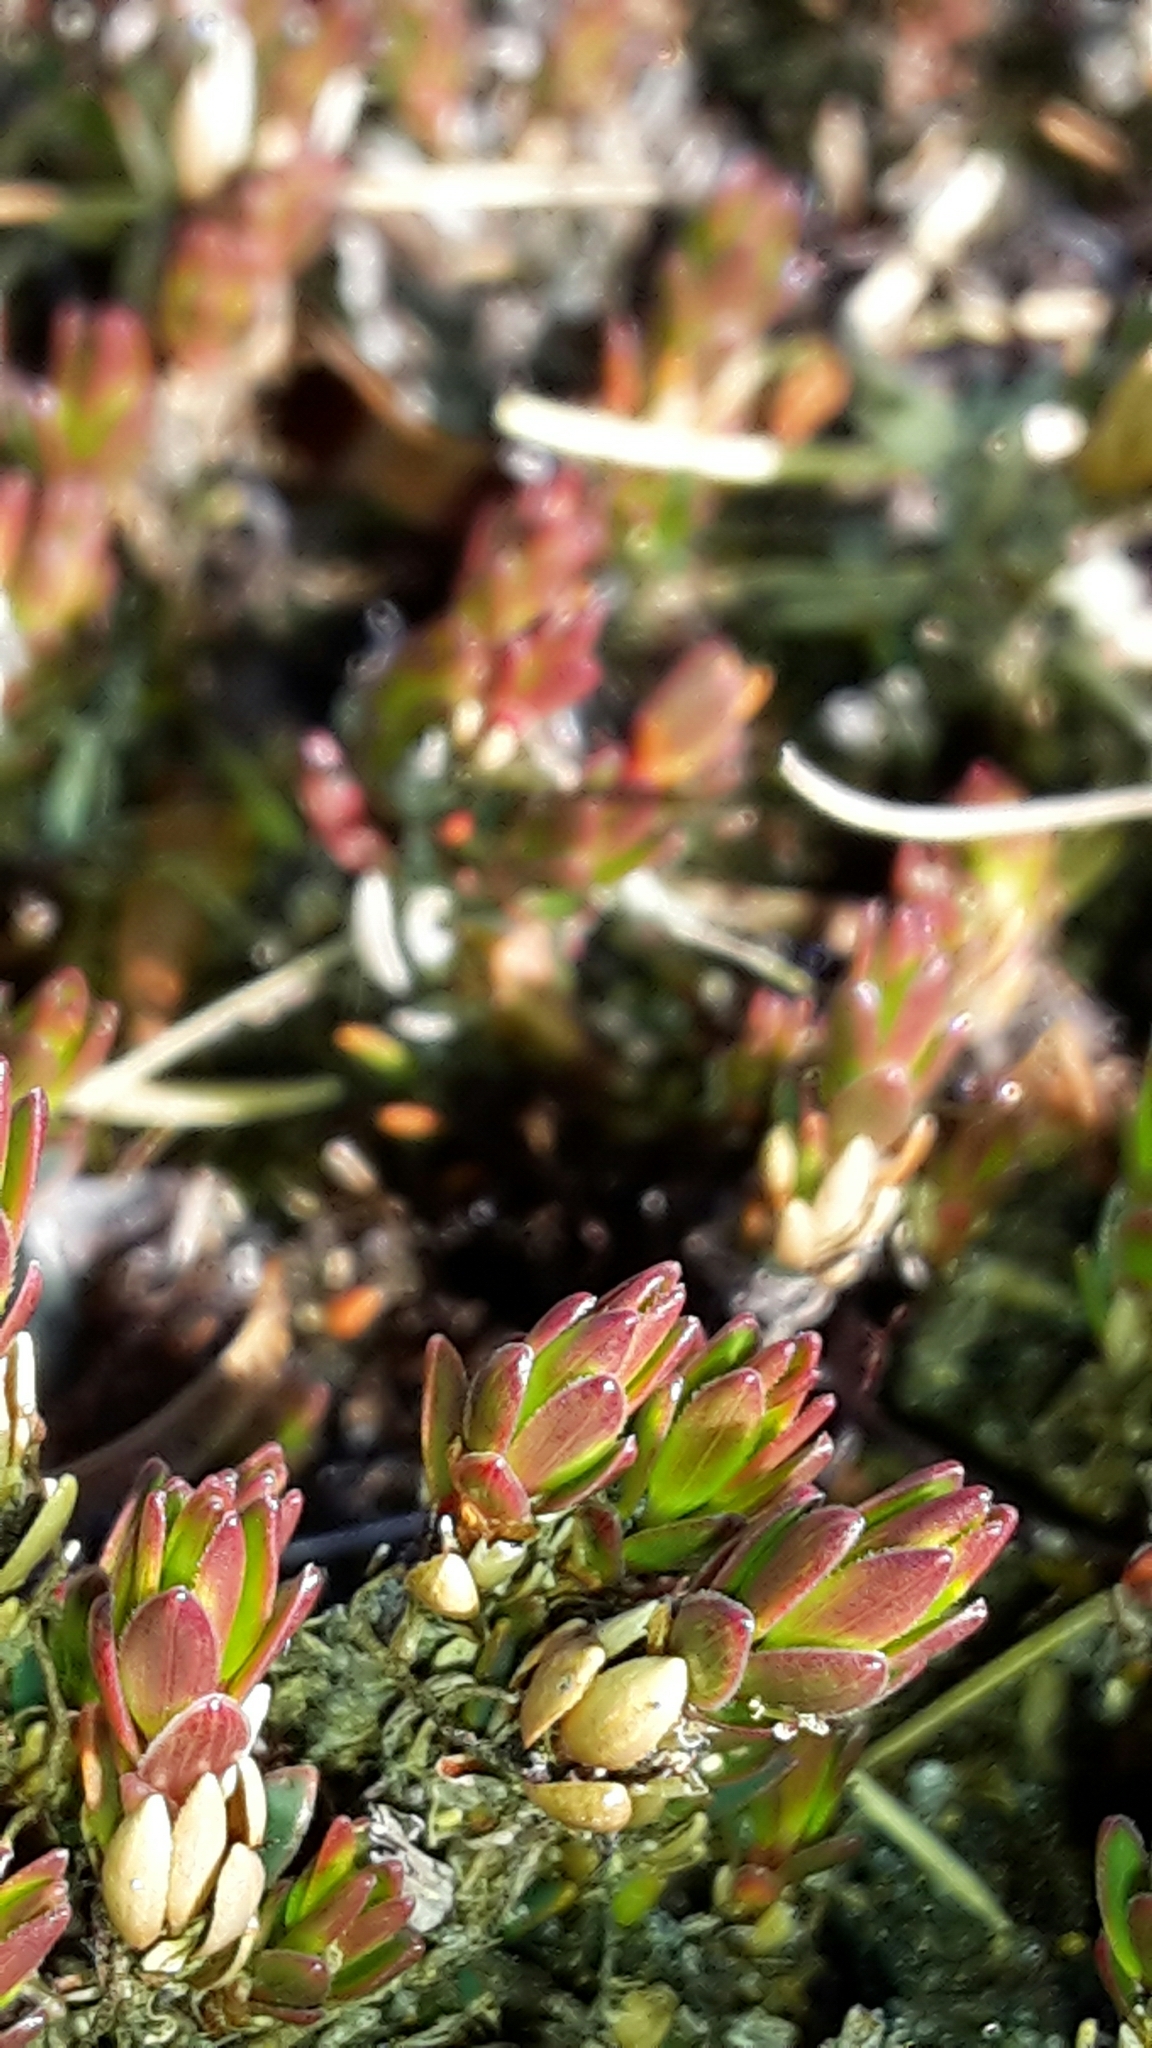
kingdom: Plantae
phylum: Tracheophyta
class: Magnoliopsida
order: Ericales
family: Ericaceae
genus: Pentachondra
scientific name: Pentachondra pumila
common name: Carpet-heath
